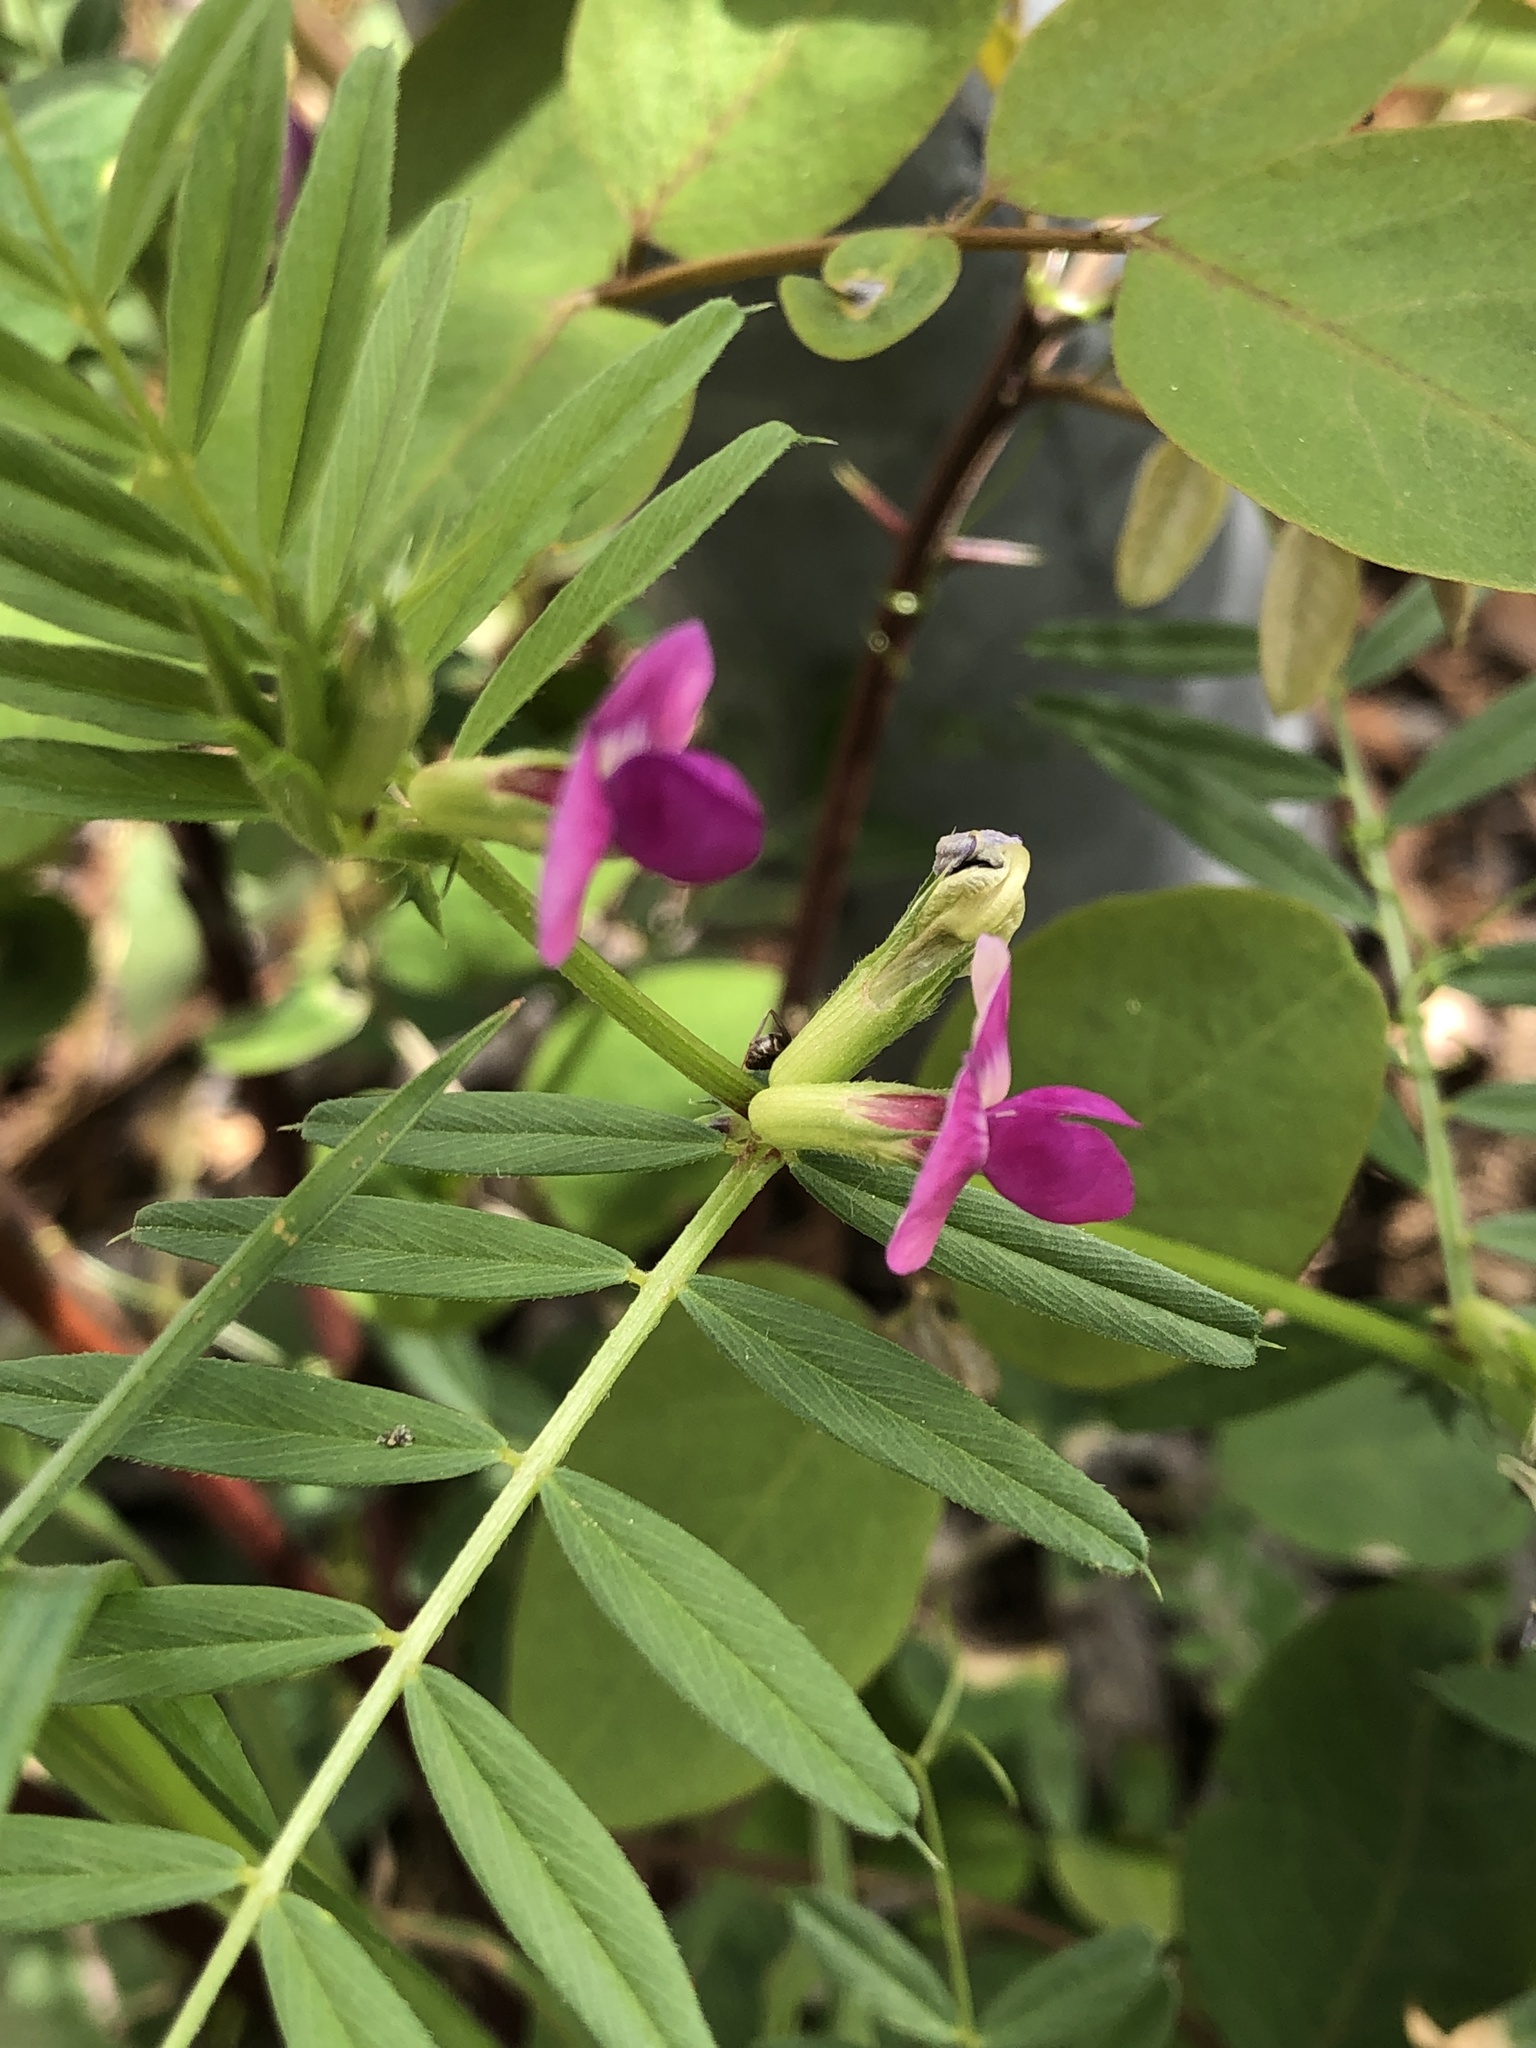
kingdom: Plantae
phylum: Tracheophyta
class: Magnoliopsida
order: Fabales
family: Fabaceae
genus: Vicia
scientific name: Vicia sativa
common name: Garden vetch
